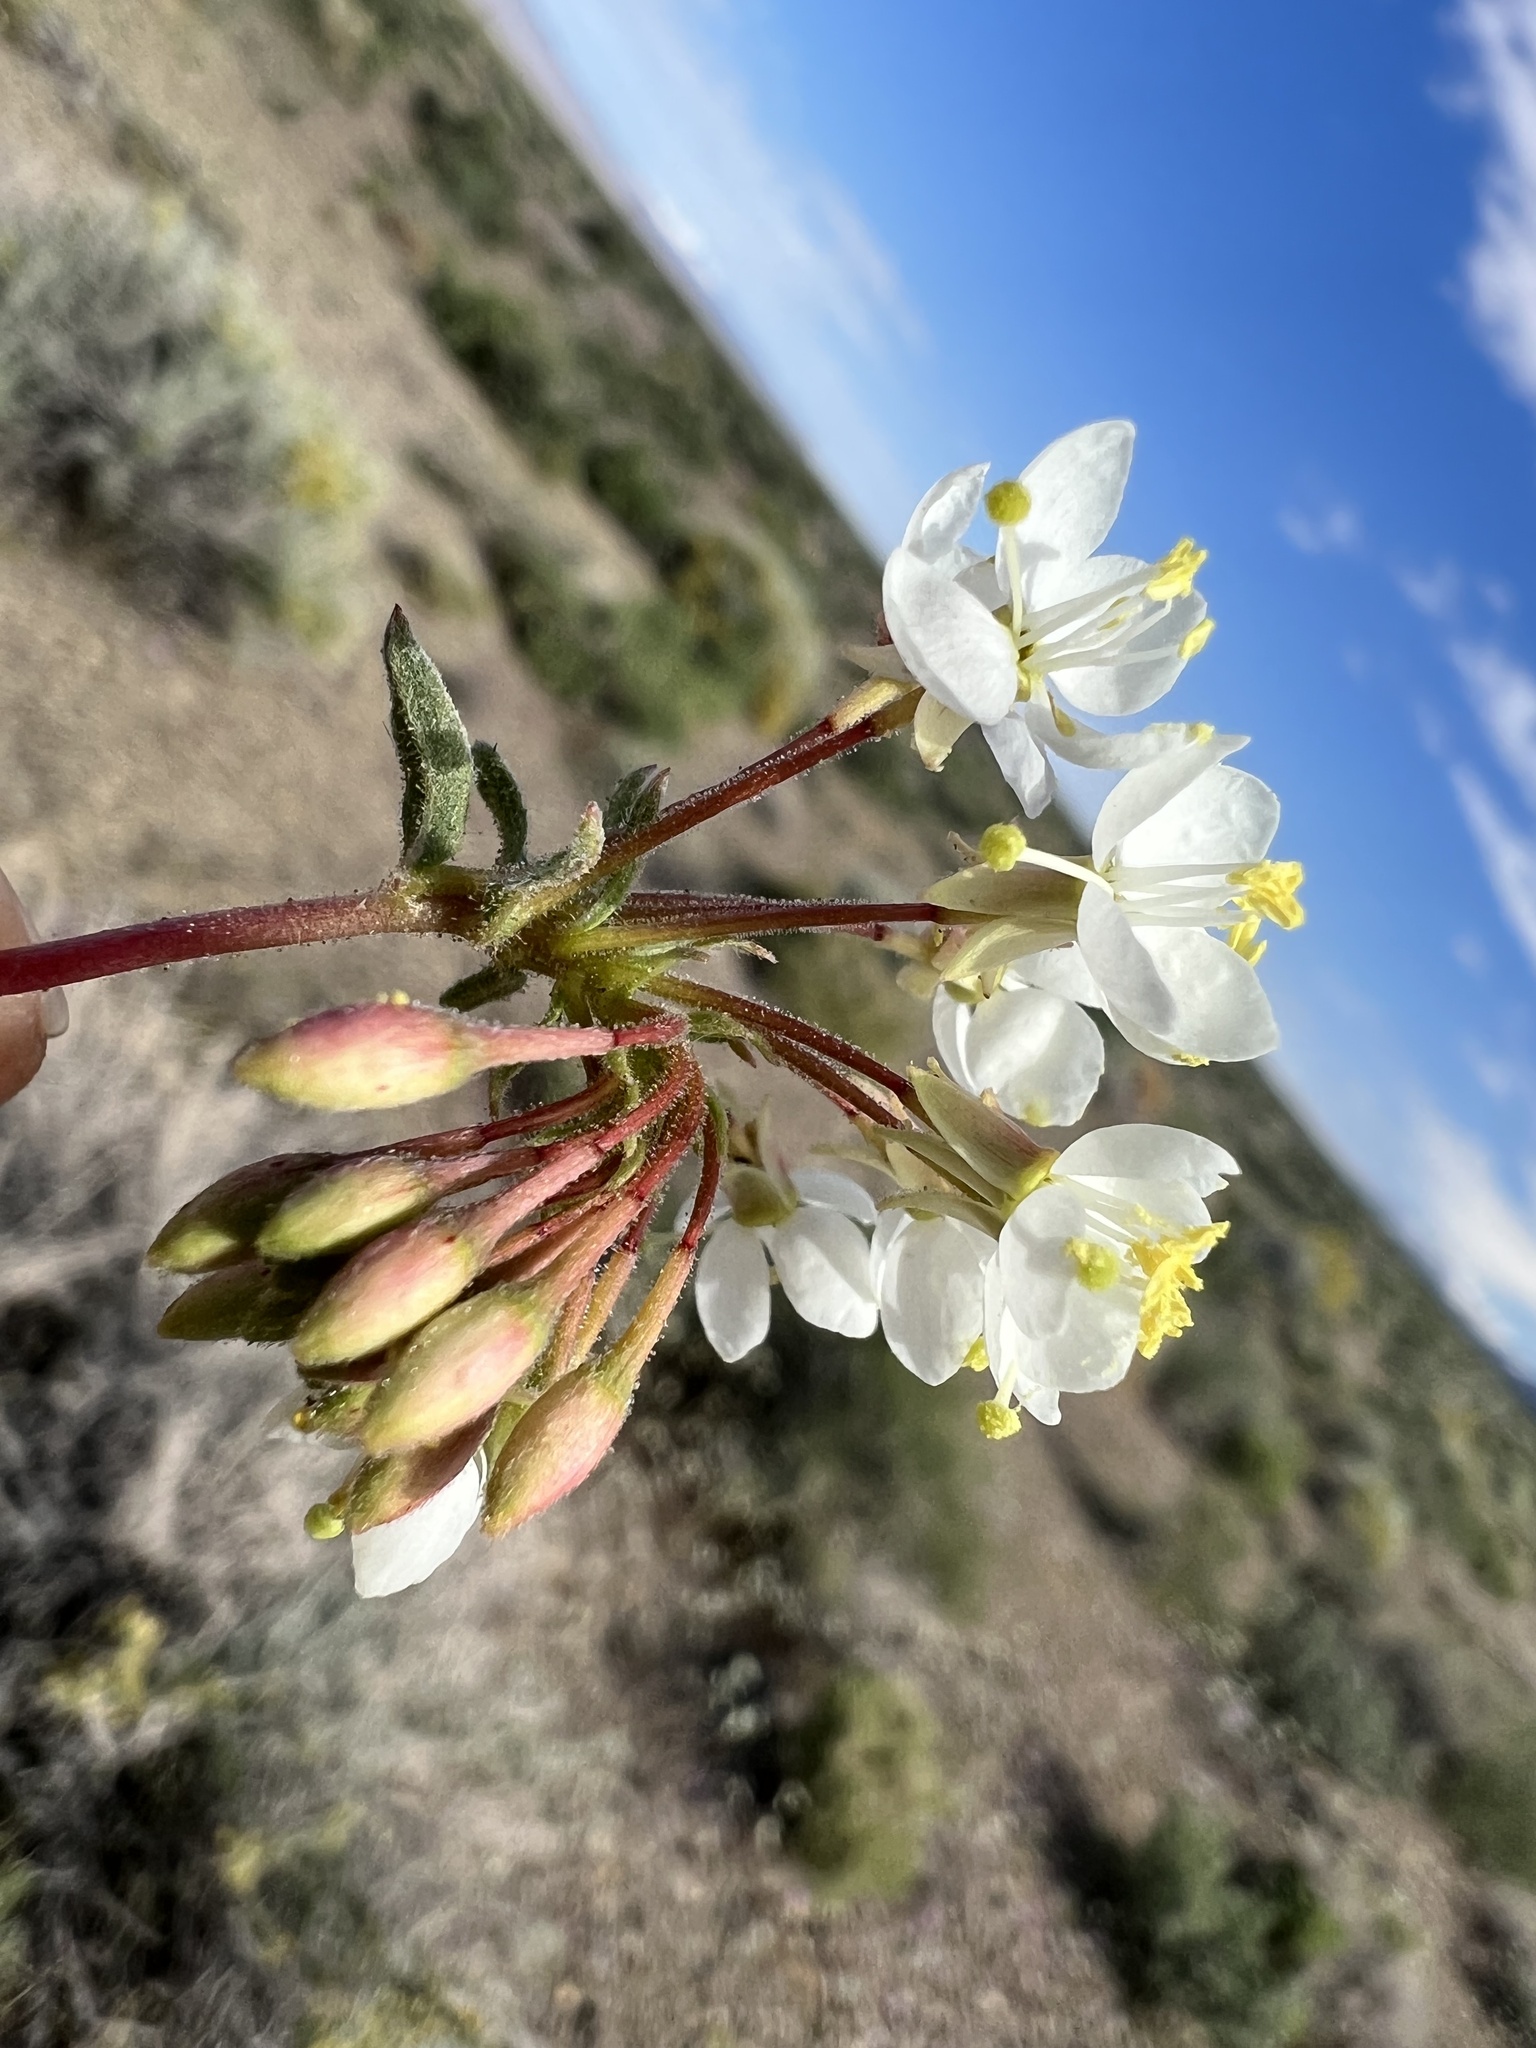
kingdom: Plantae
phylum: Tracheophyta
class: Magnoliopsida
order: Myrtales
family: Onagraceae
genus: Eremothera
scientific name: Eremothera boothii
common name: Booth's evening primrose
